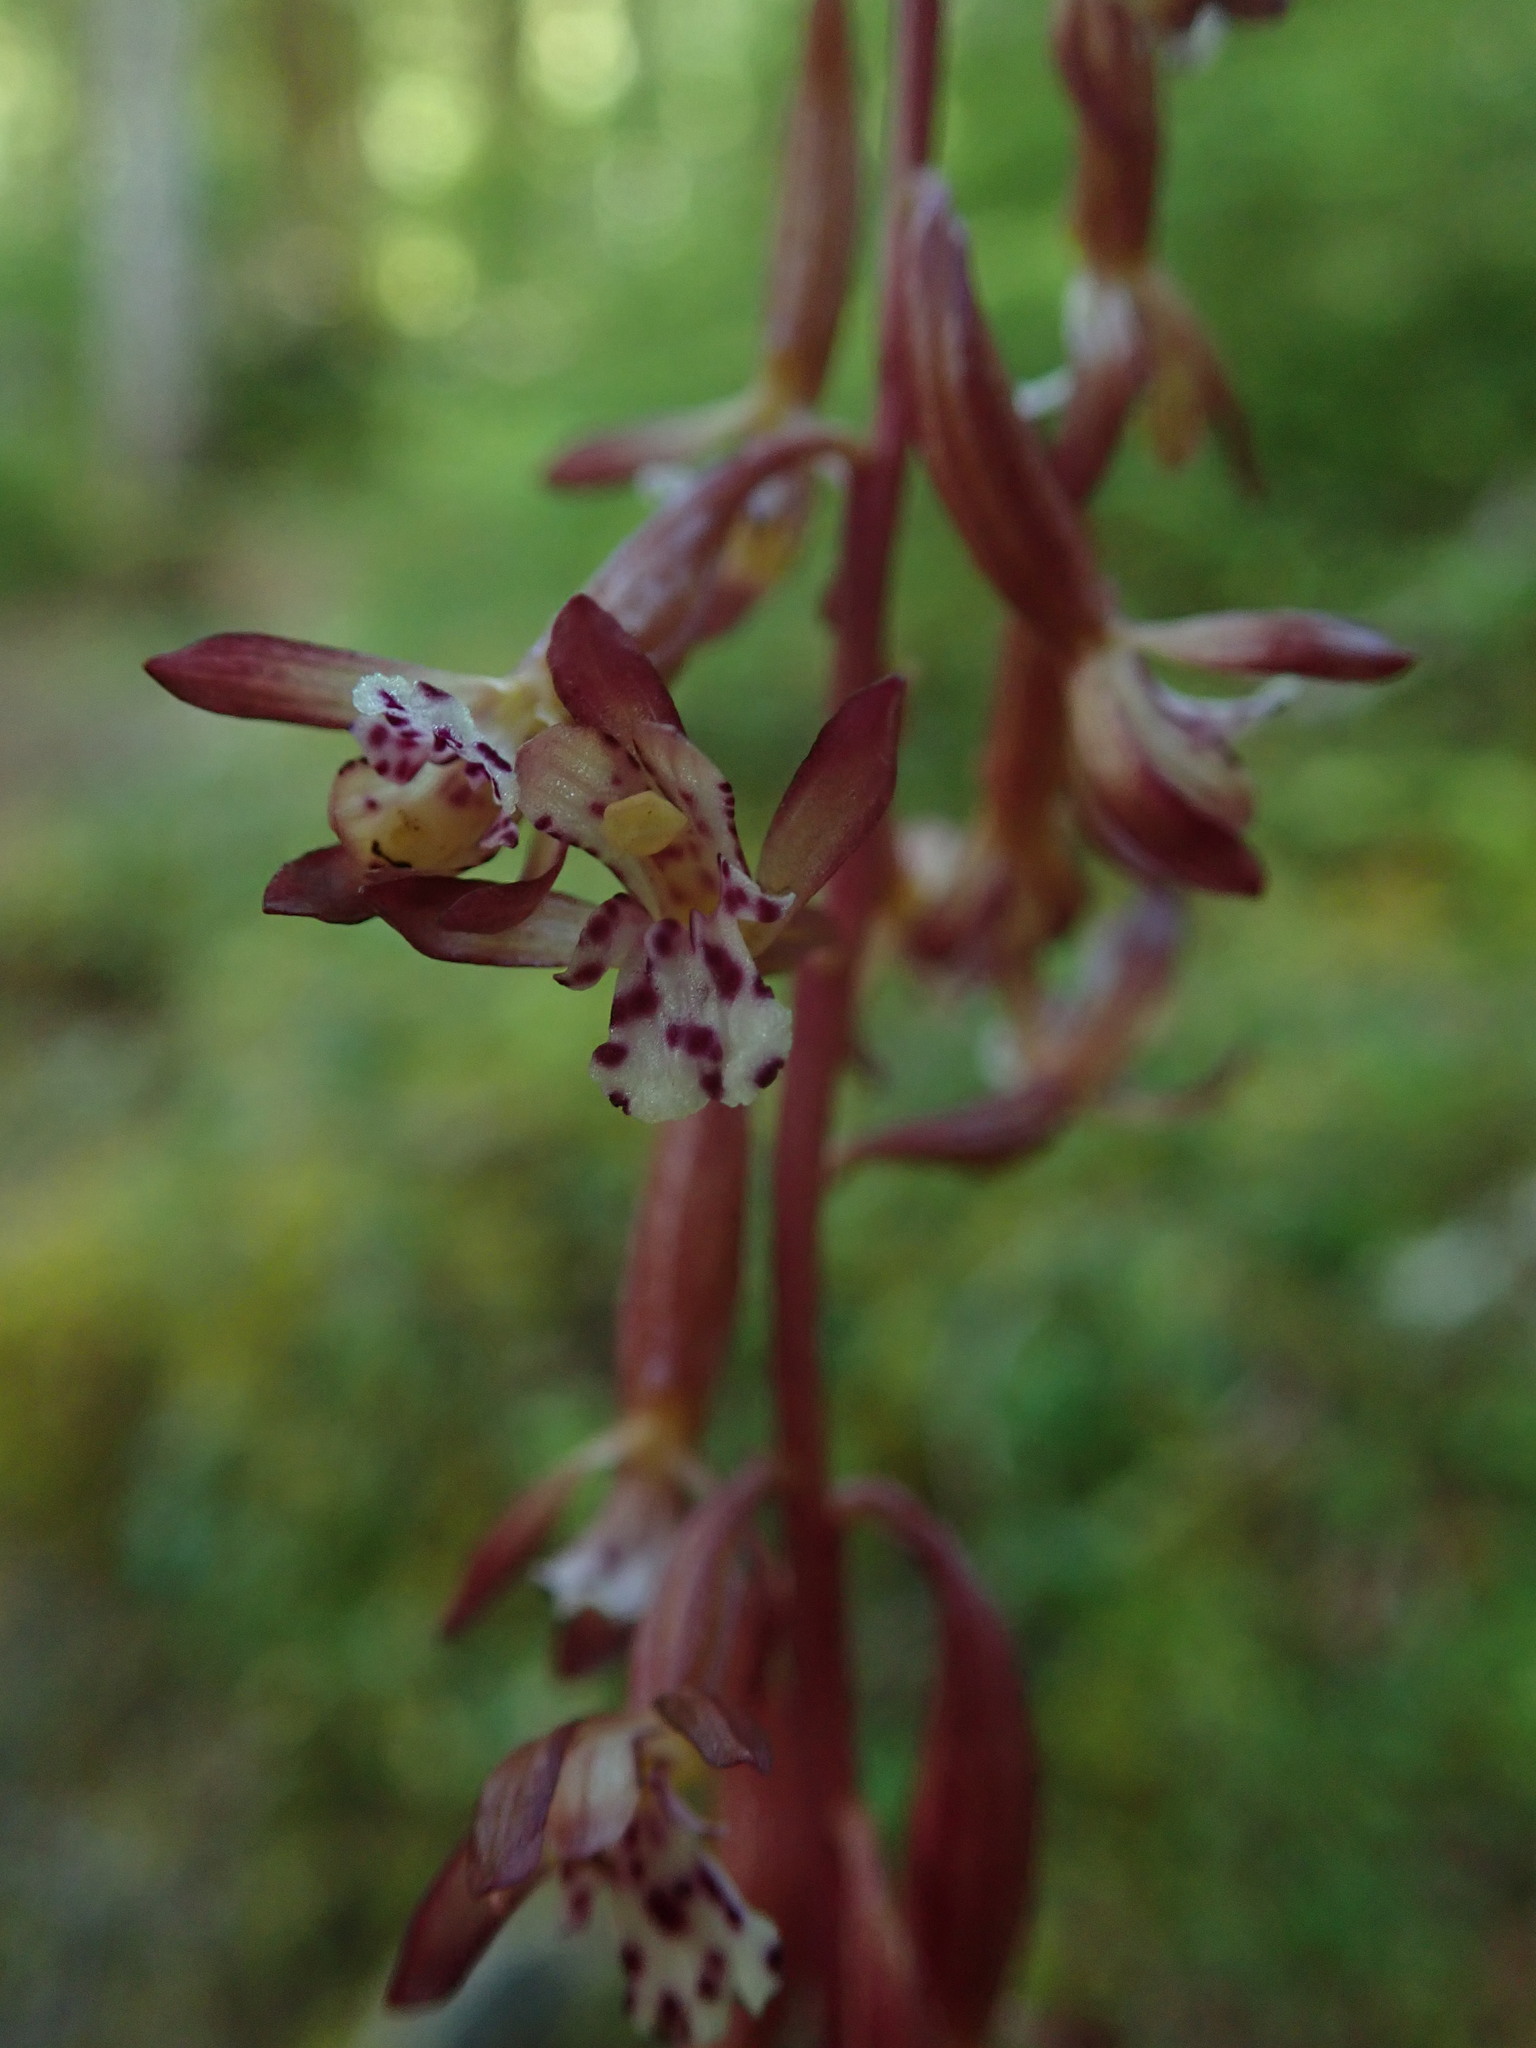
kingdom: Plantae
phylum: Tracheophyta
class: Liliopsida
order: Asparagales
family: Orchidaceae
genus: Corallorhiza
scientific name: Corallorhiza maculata
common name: Spotted coralroot
